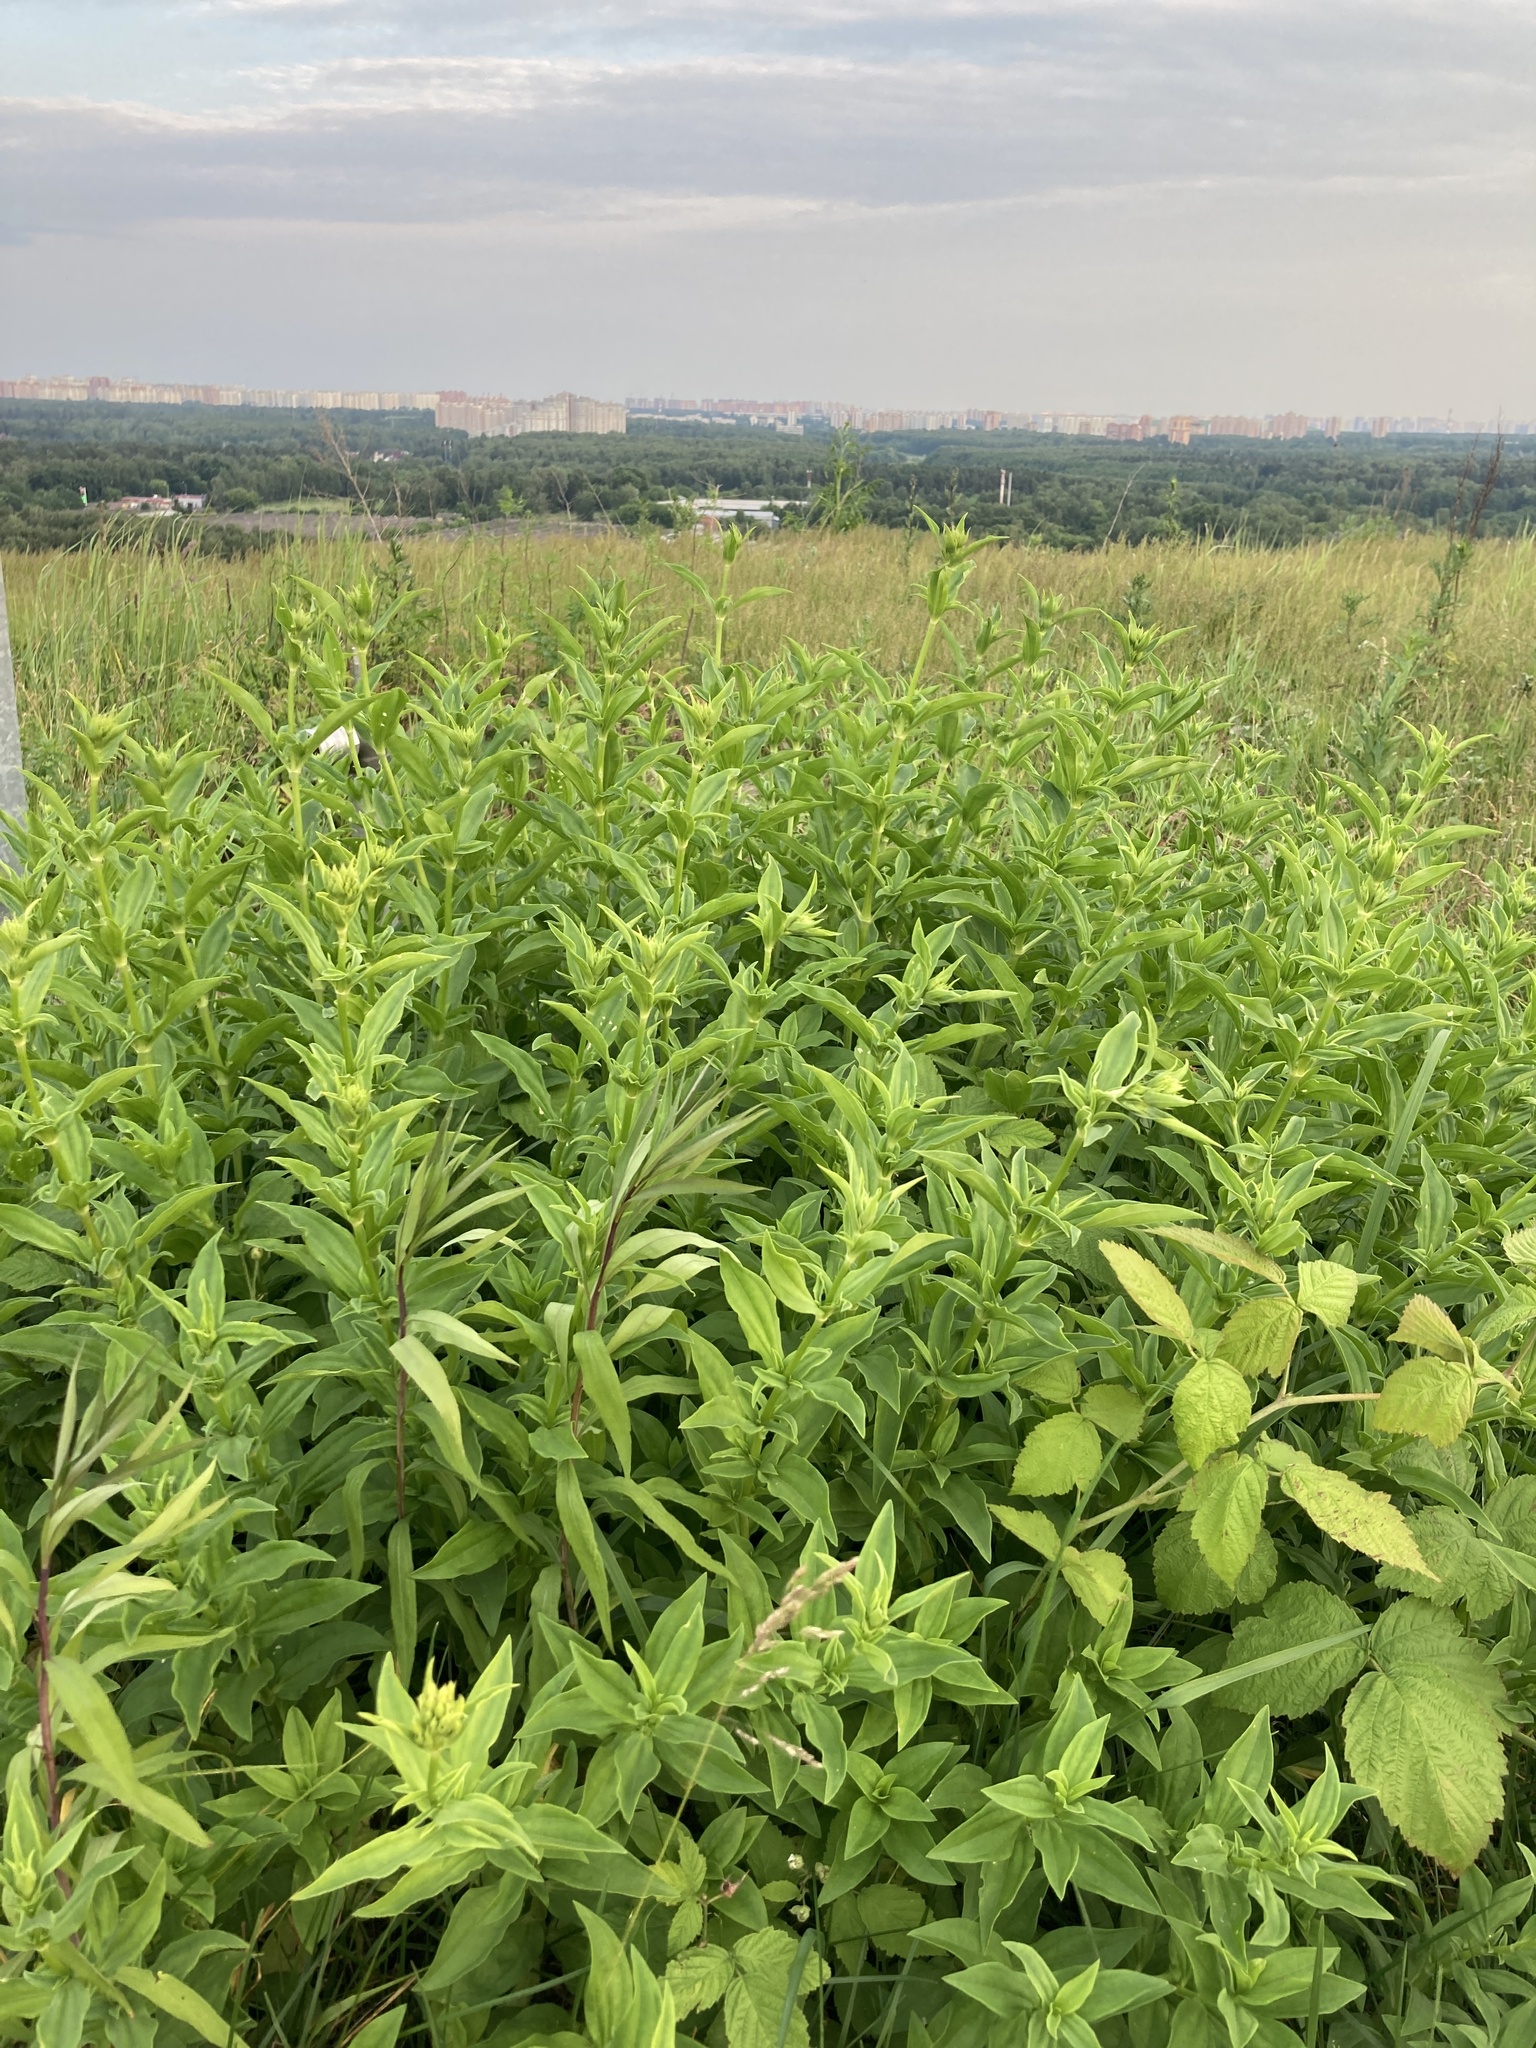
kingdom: Plantae
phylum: Tracheophyta
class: Magnoliopsida
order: Caryophyllales
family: Caryophyllaceae
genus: Saponaria
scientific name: Saponaria officinalis
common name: Soapwort
